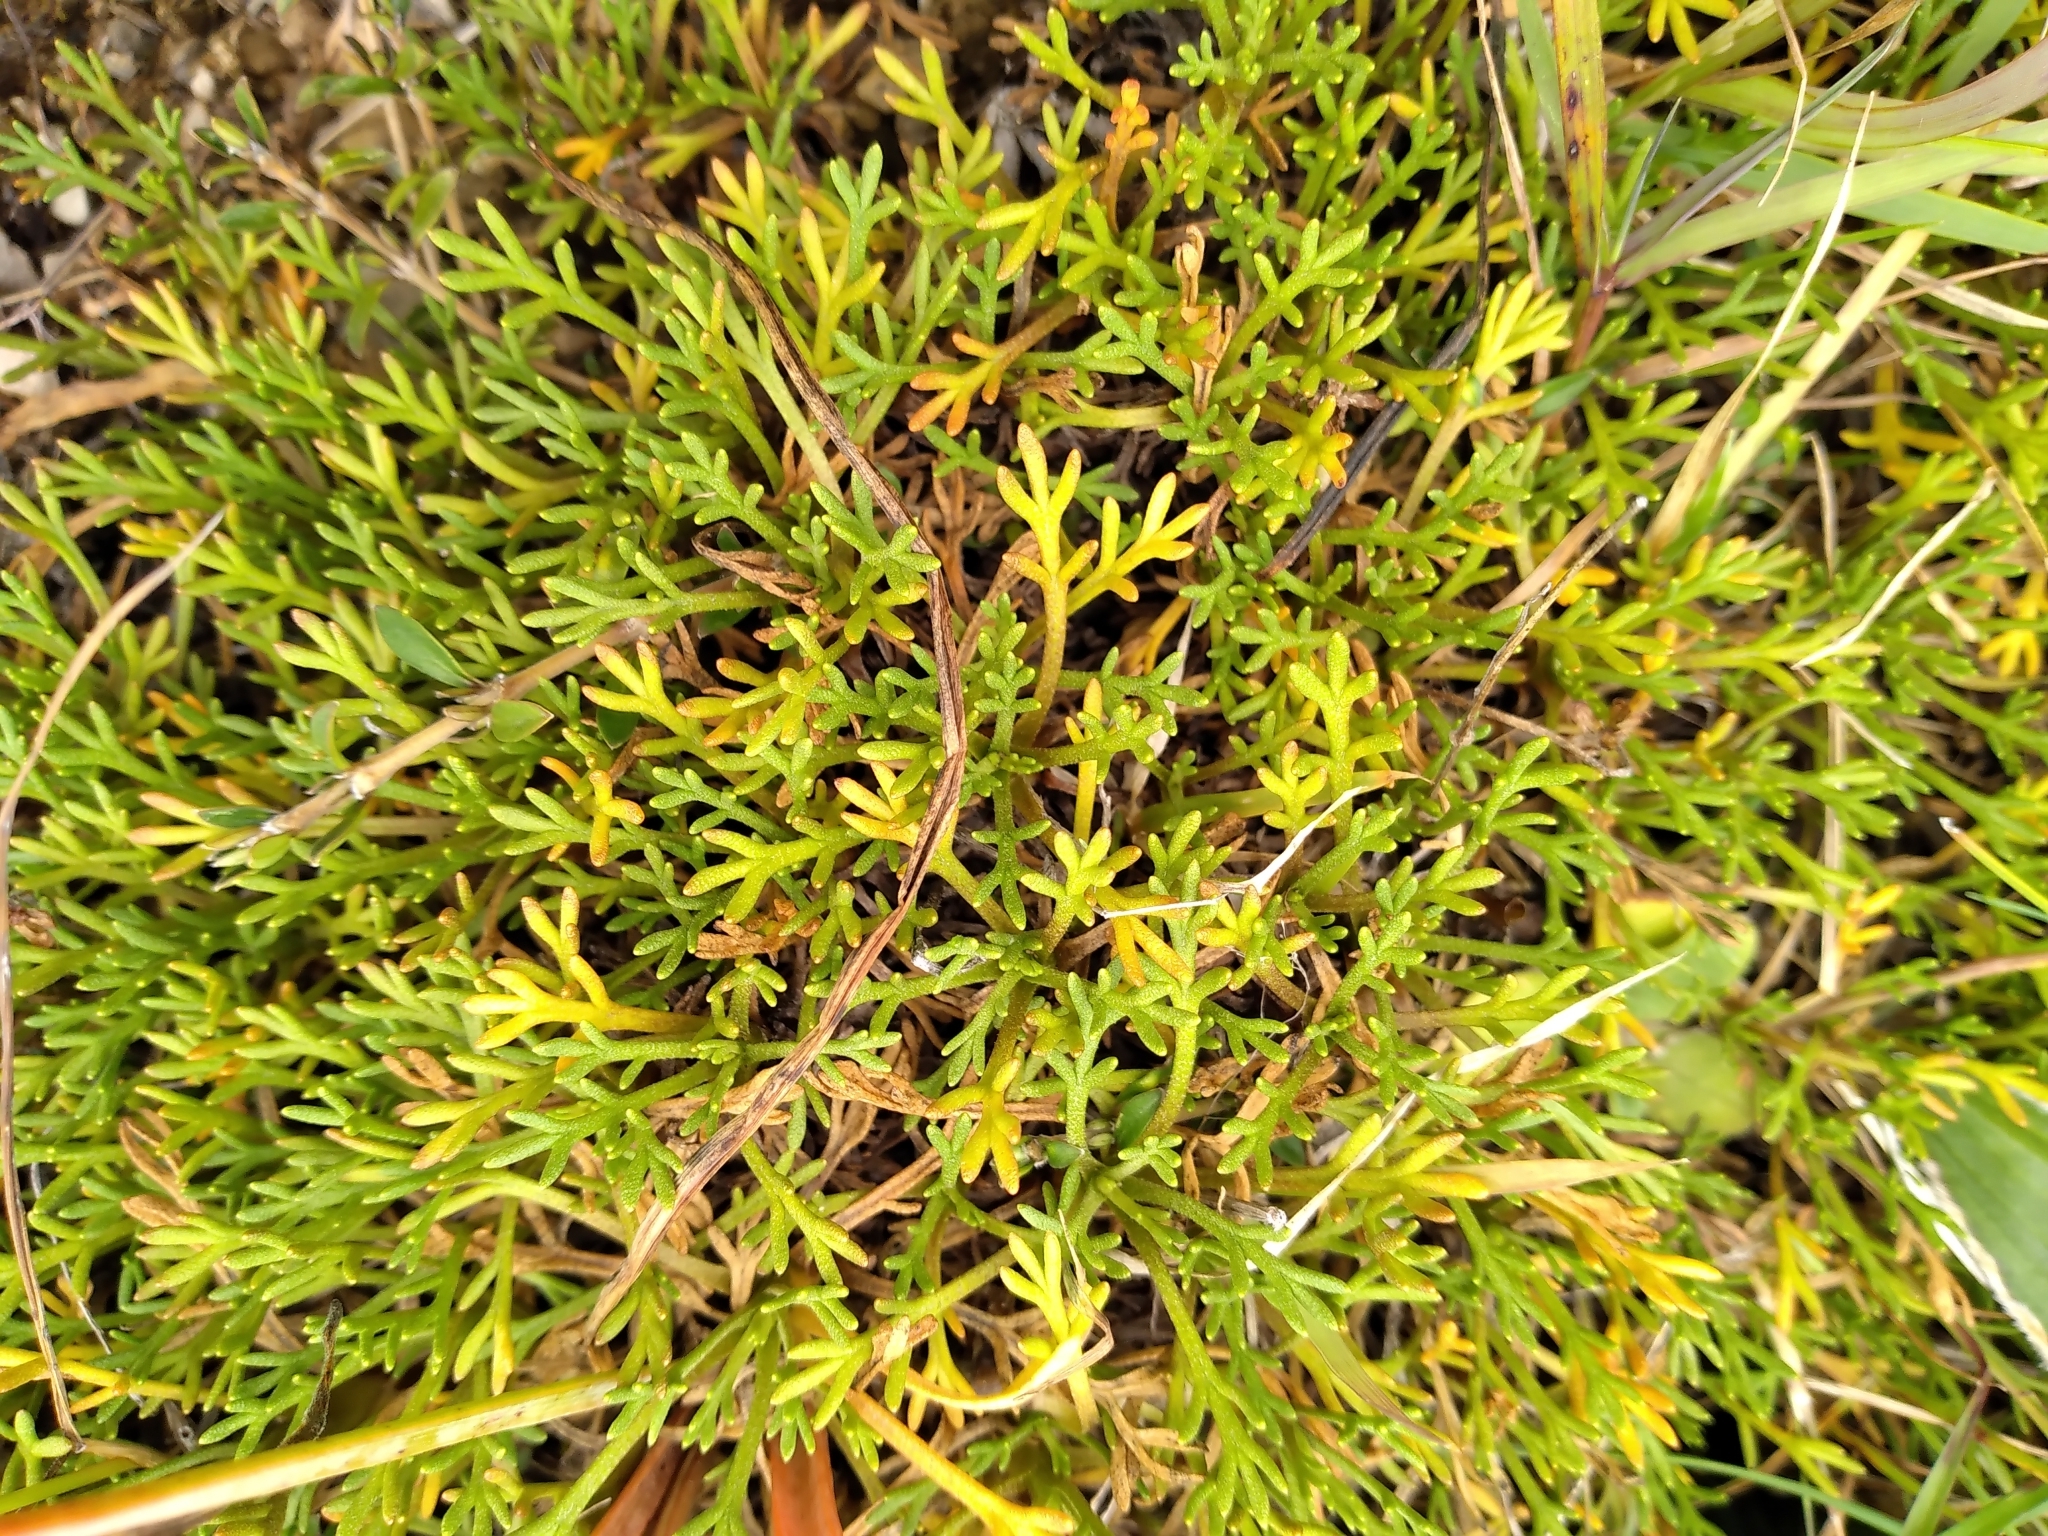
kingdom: Plantae
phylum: Tracheophyta
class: Magnoliopsida
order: Asterales
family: Asteraceae
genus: Leptinella
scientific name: Leptinella pyrethrifolia
